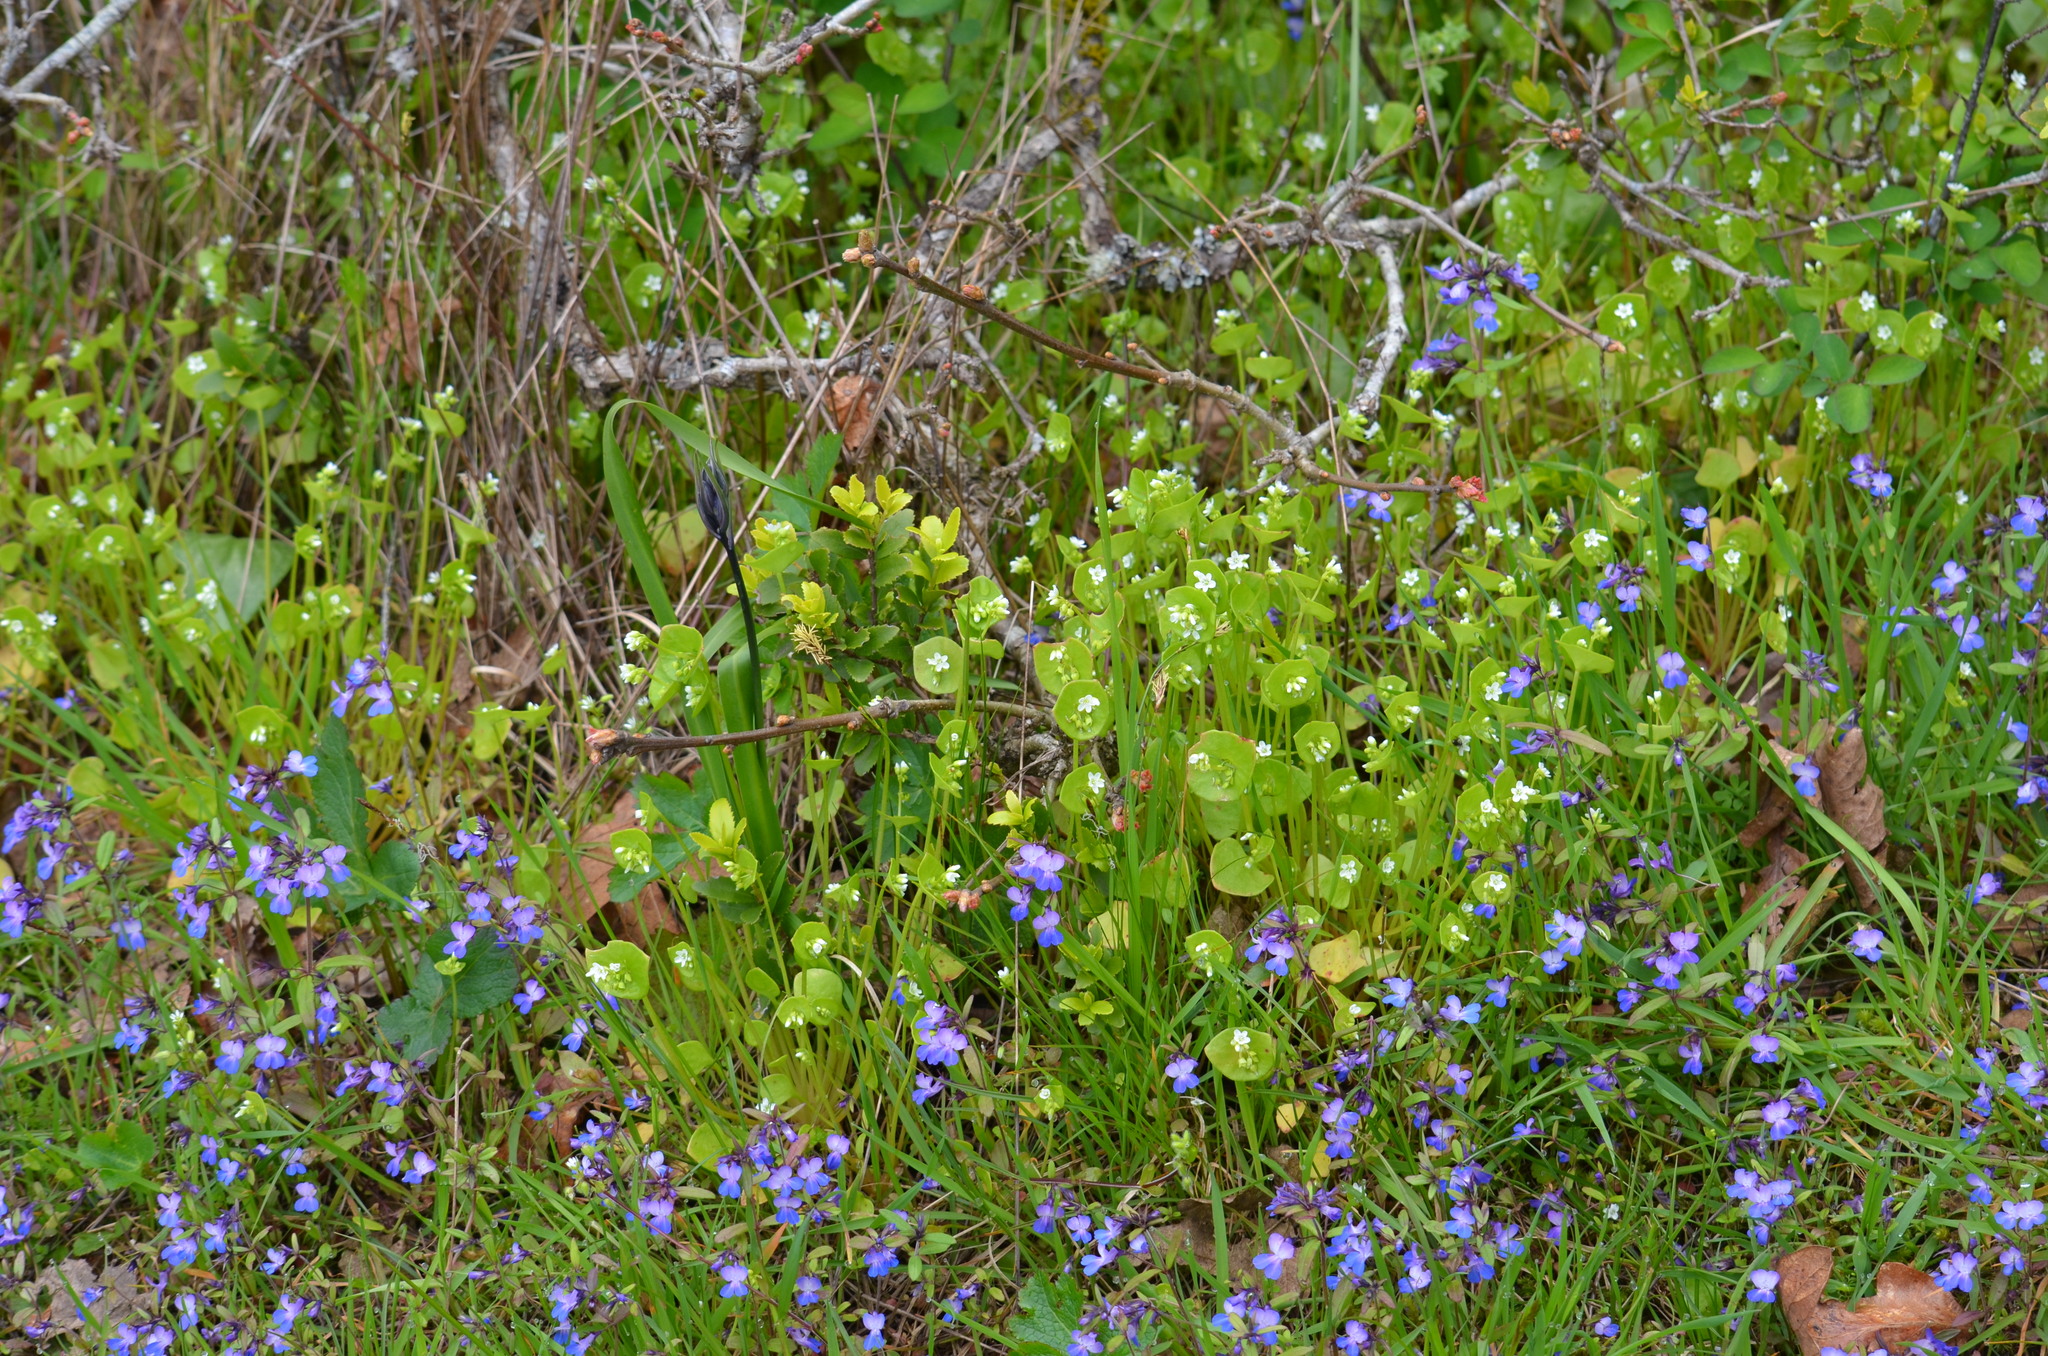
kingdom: Plantae
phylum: Tracheophyta
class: Magnoliopsida
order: Caryophyllales
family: Montiaceae
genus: Claytonia
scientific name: Claytonia perfoliata
